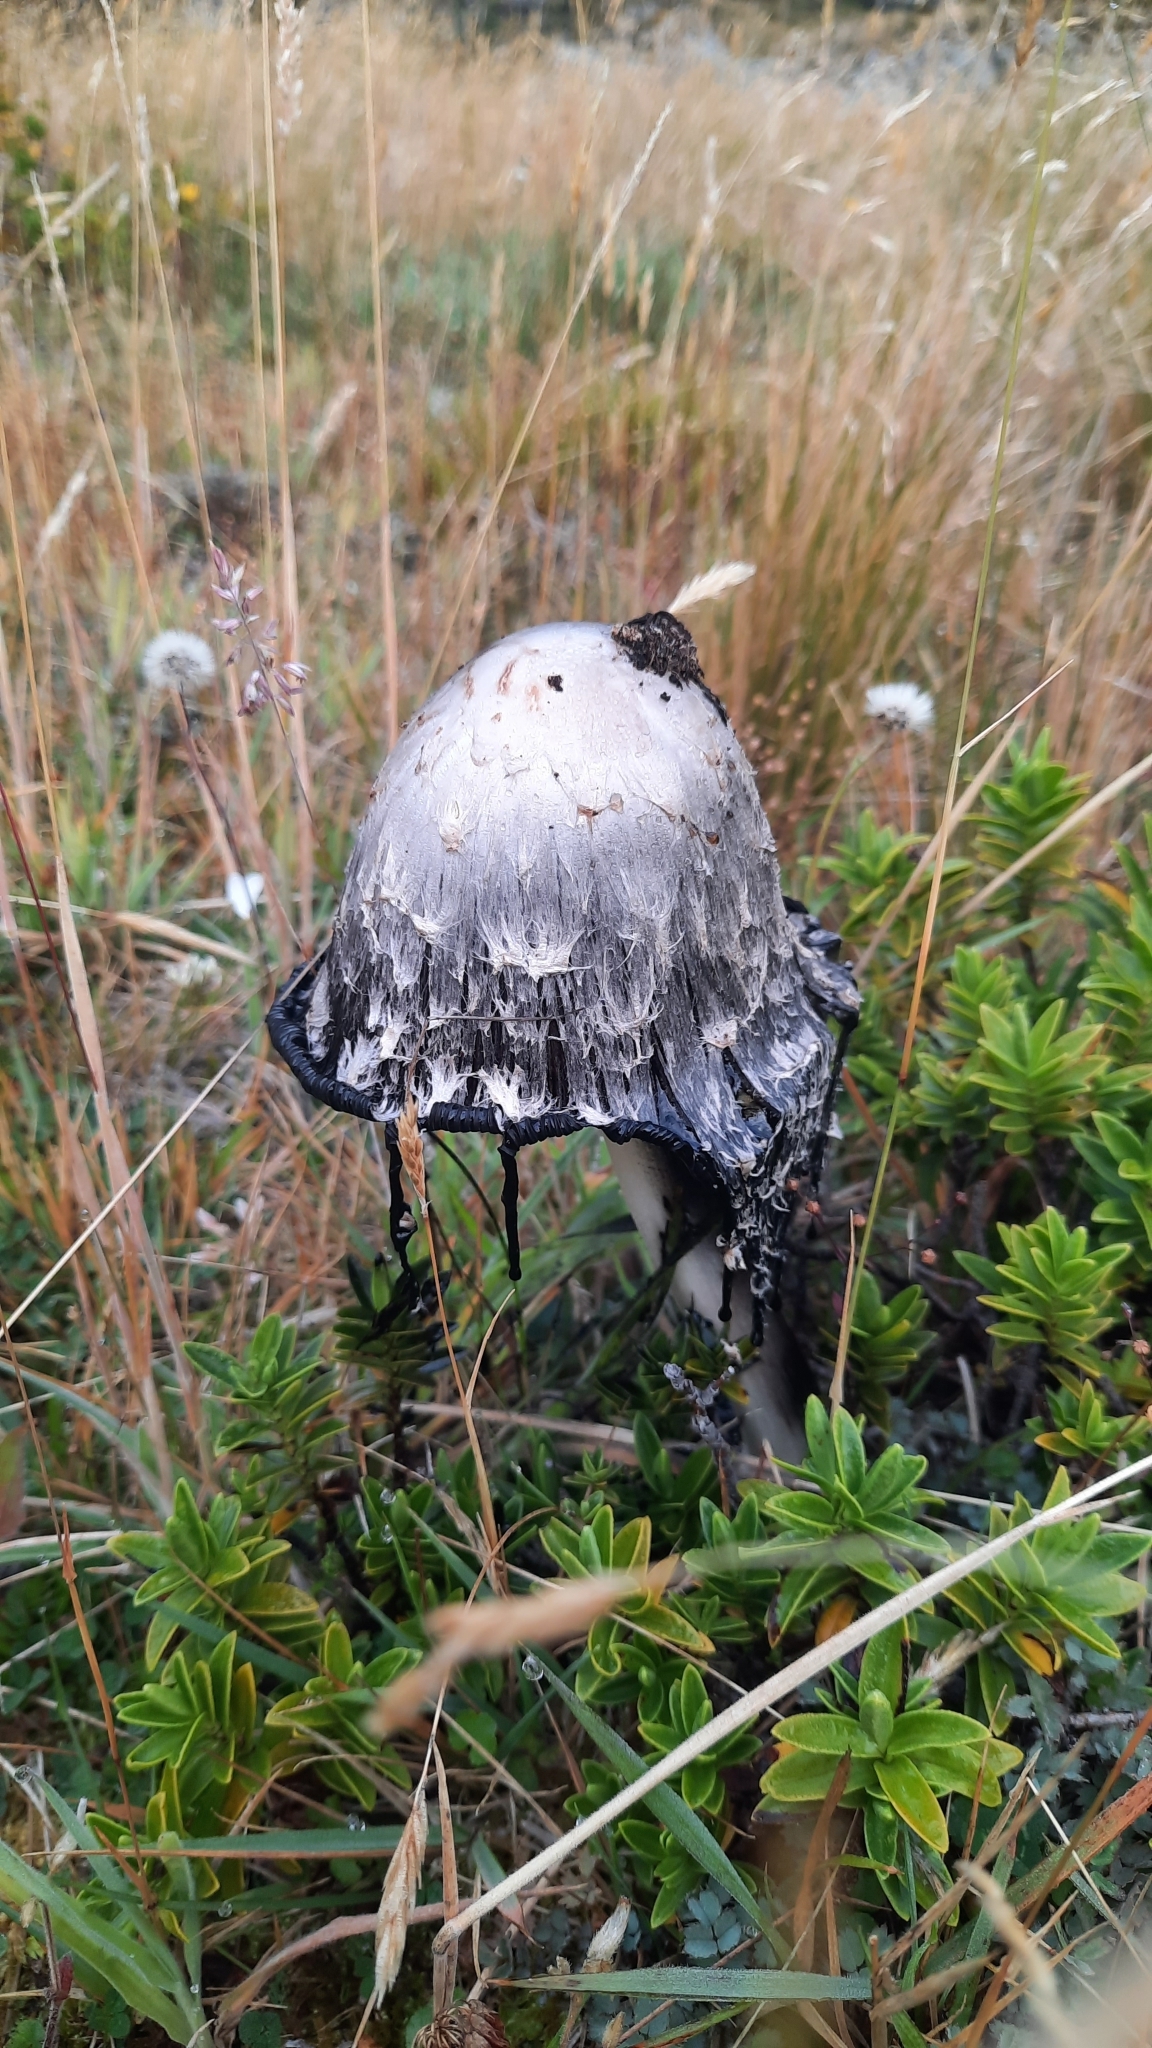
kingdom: Fungi
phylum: Basidiomycota
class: Agaricomycetes
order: Agaricales
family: Agaricaceae
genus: Coprinus
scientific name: Coprinus comatus
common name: Lawyer's wig
